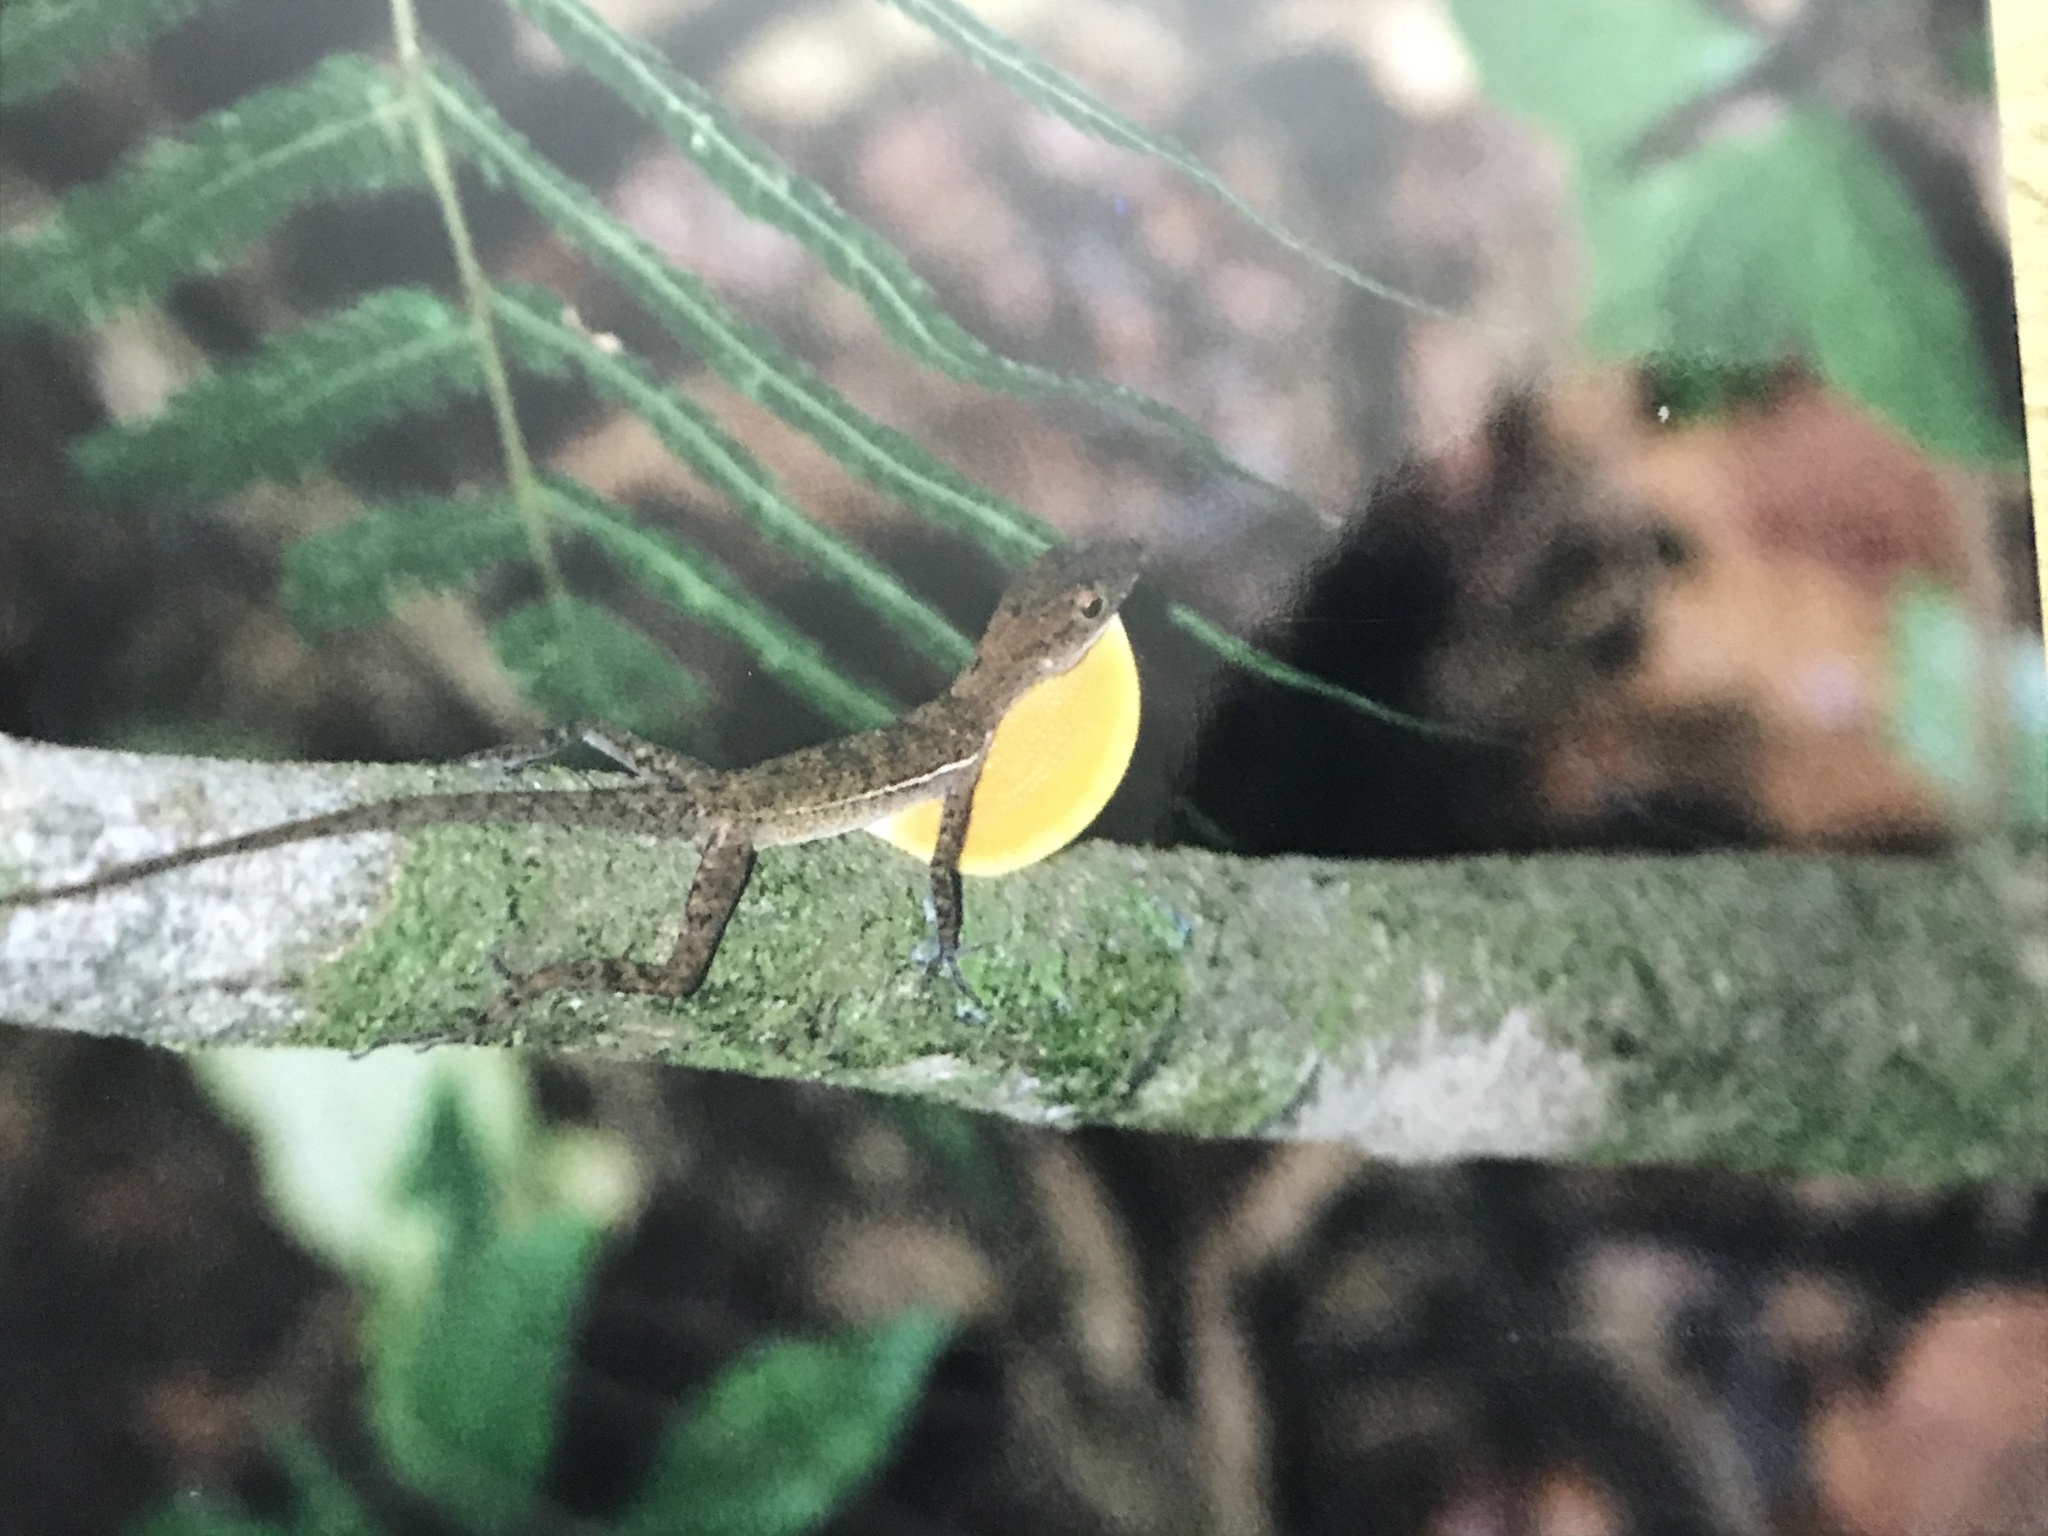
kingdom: Animalia
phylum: Chordata
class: Squamata
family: Dactyloidae
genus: Anolis
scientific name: Anolis osa
